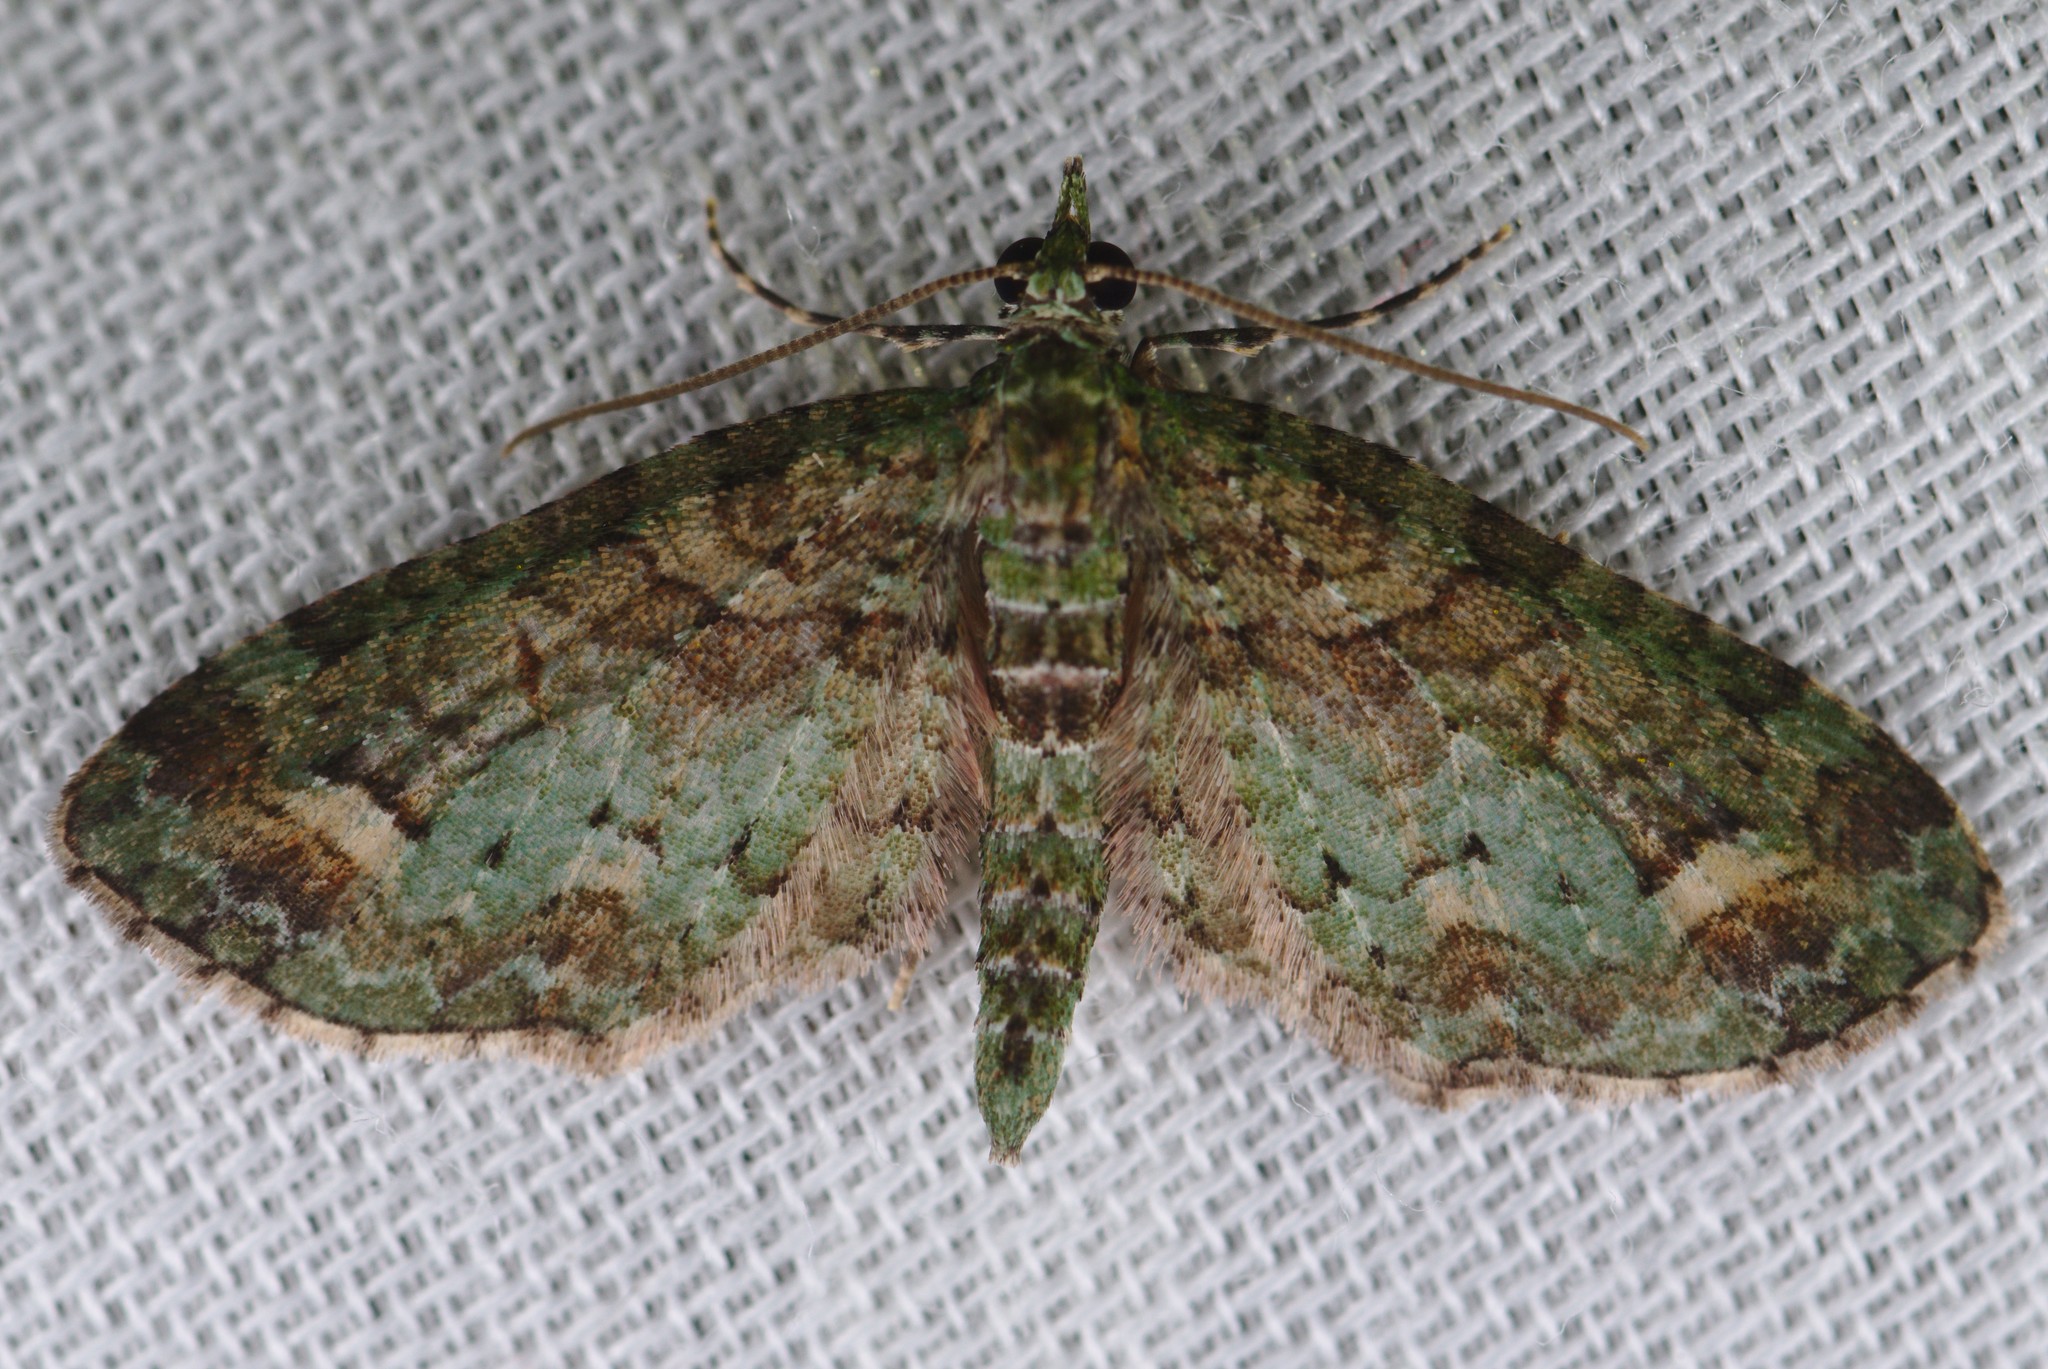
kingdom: Animalia
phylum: Arthropoda
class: Insecta
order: Lepidoptera
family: Geometridae
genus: Idaea
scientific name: Idaea mutanda
